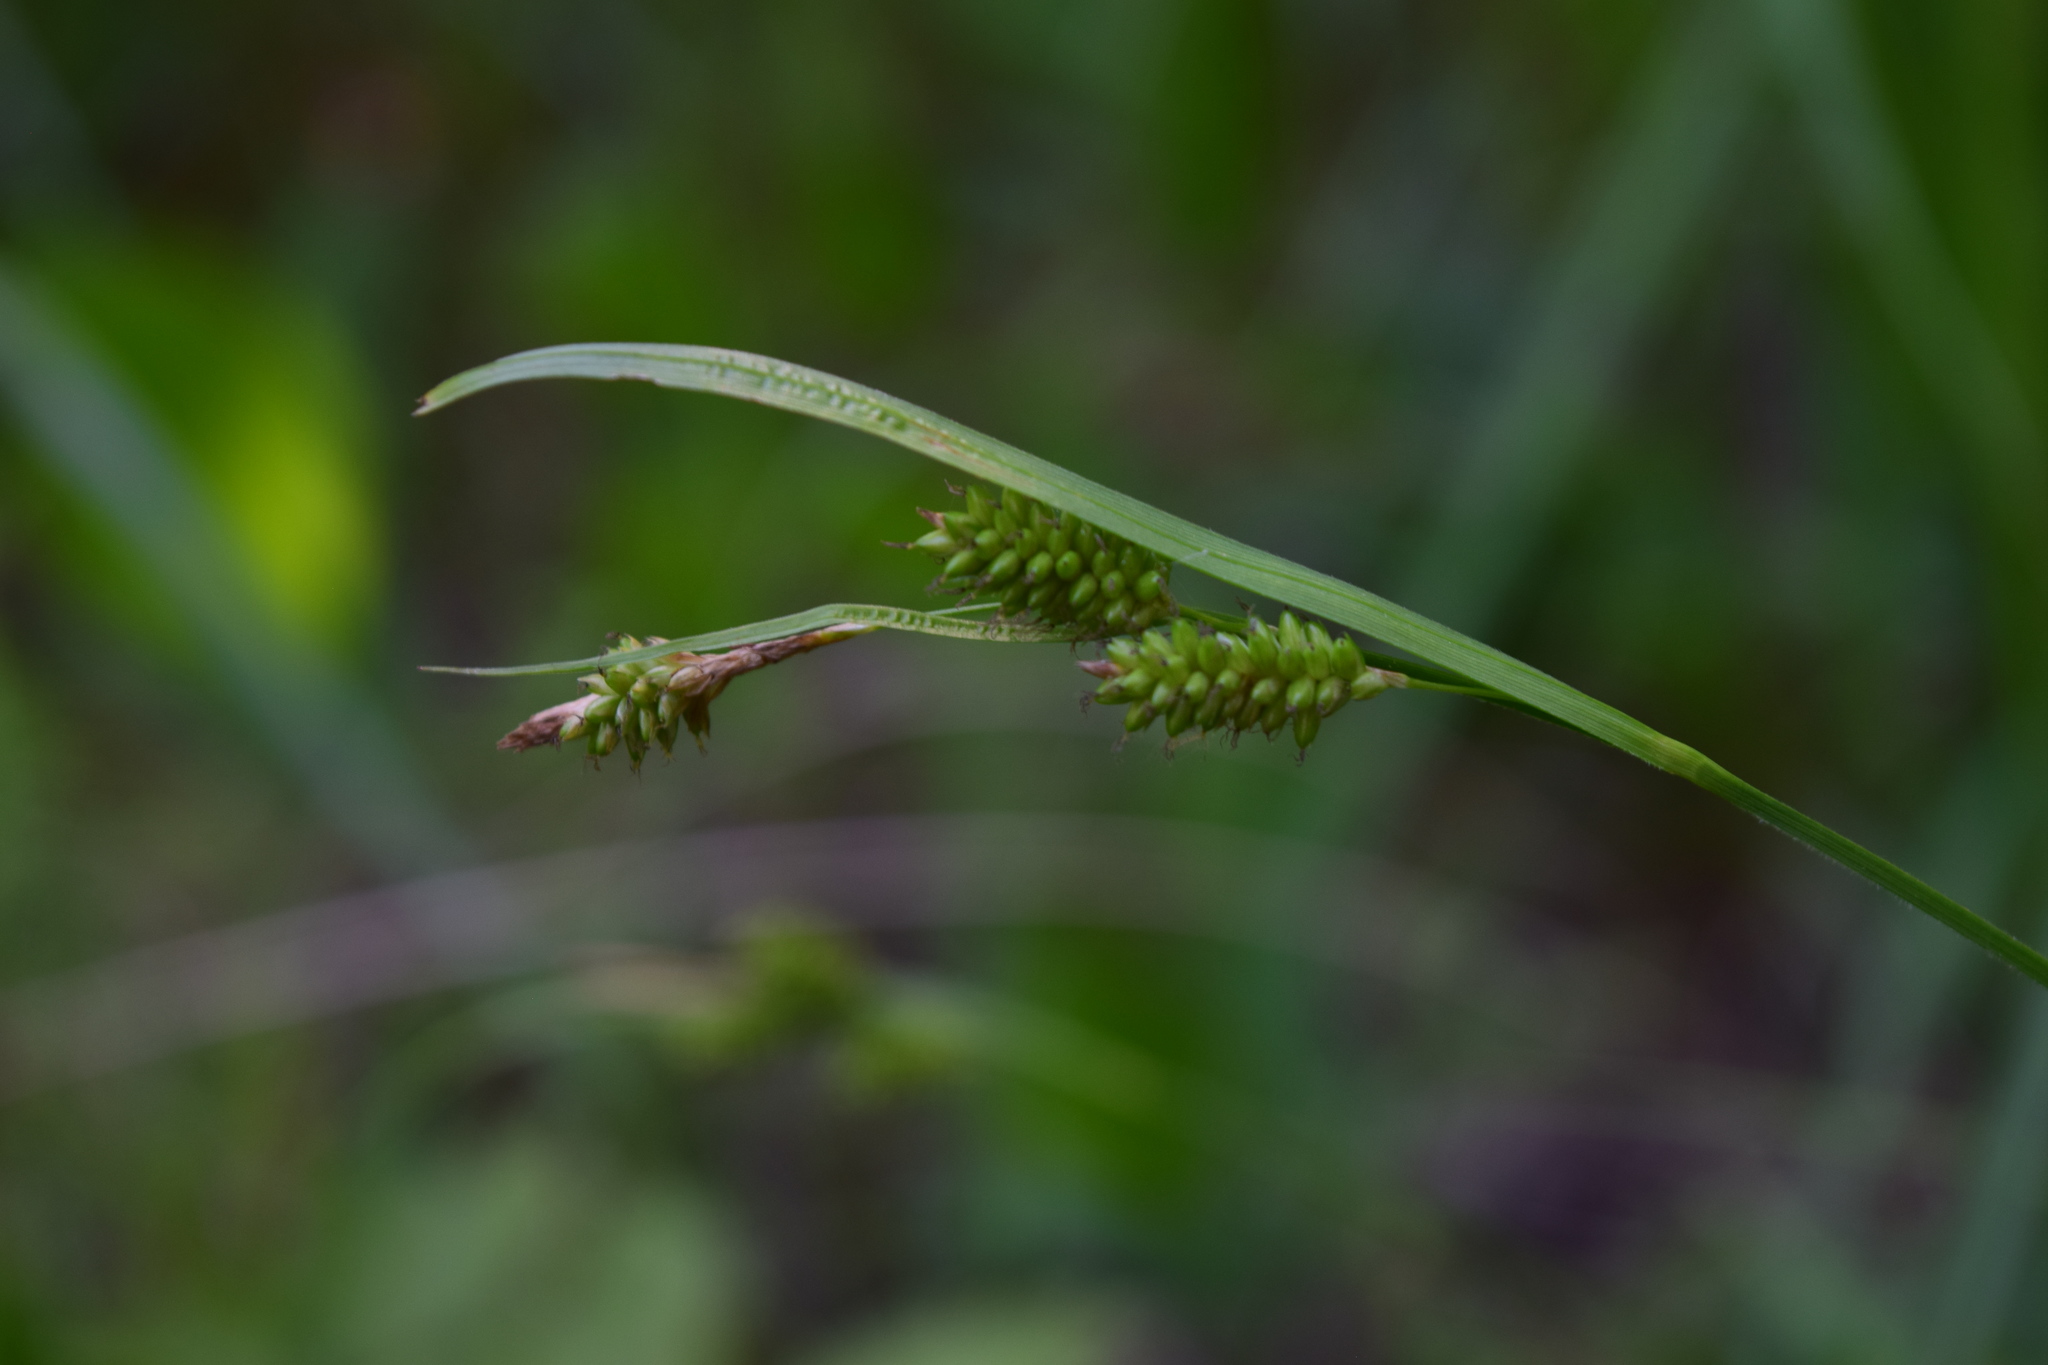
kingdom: Plantae
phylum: Tracheophyta
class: Liliopsida
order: Poales
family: Cyperaceae
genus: Carex
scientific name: Carex pallescens
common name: Pale sedge
